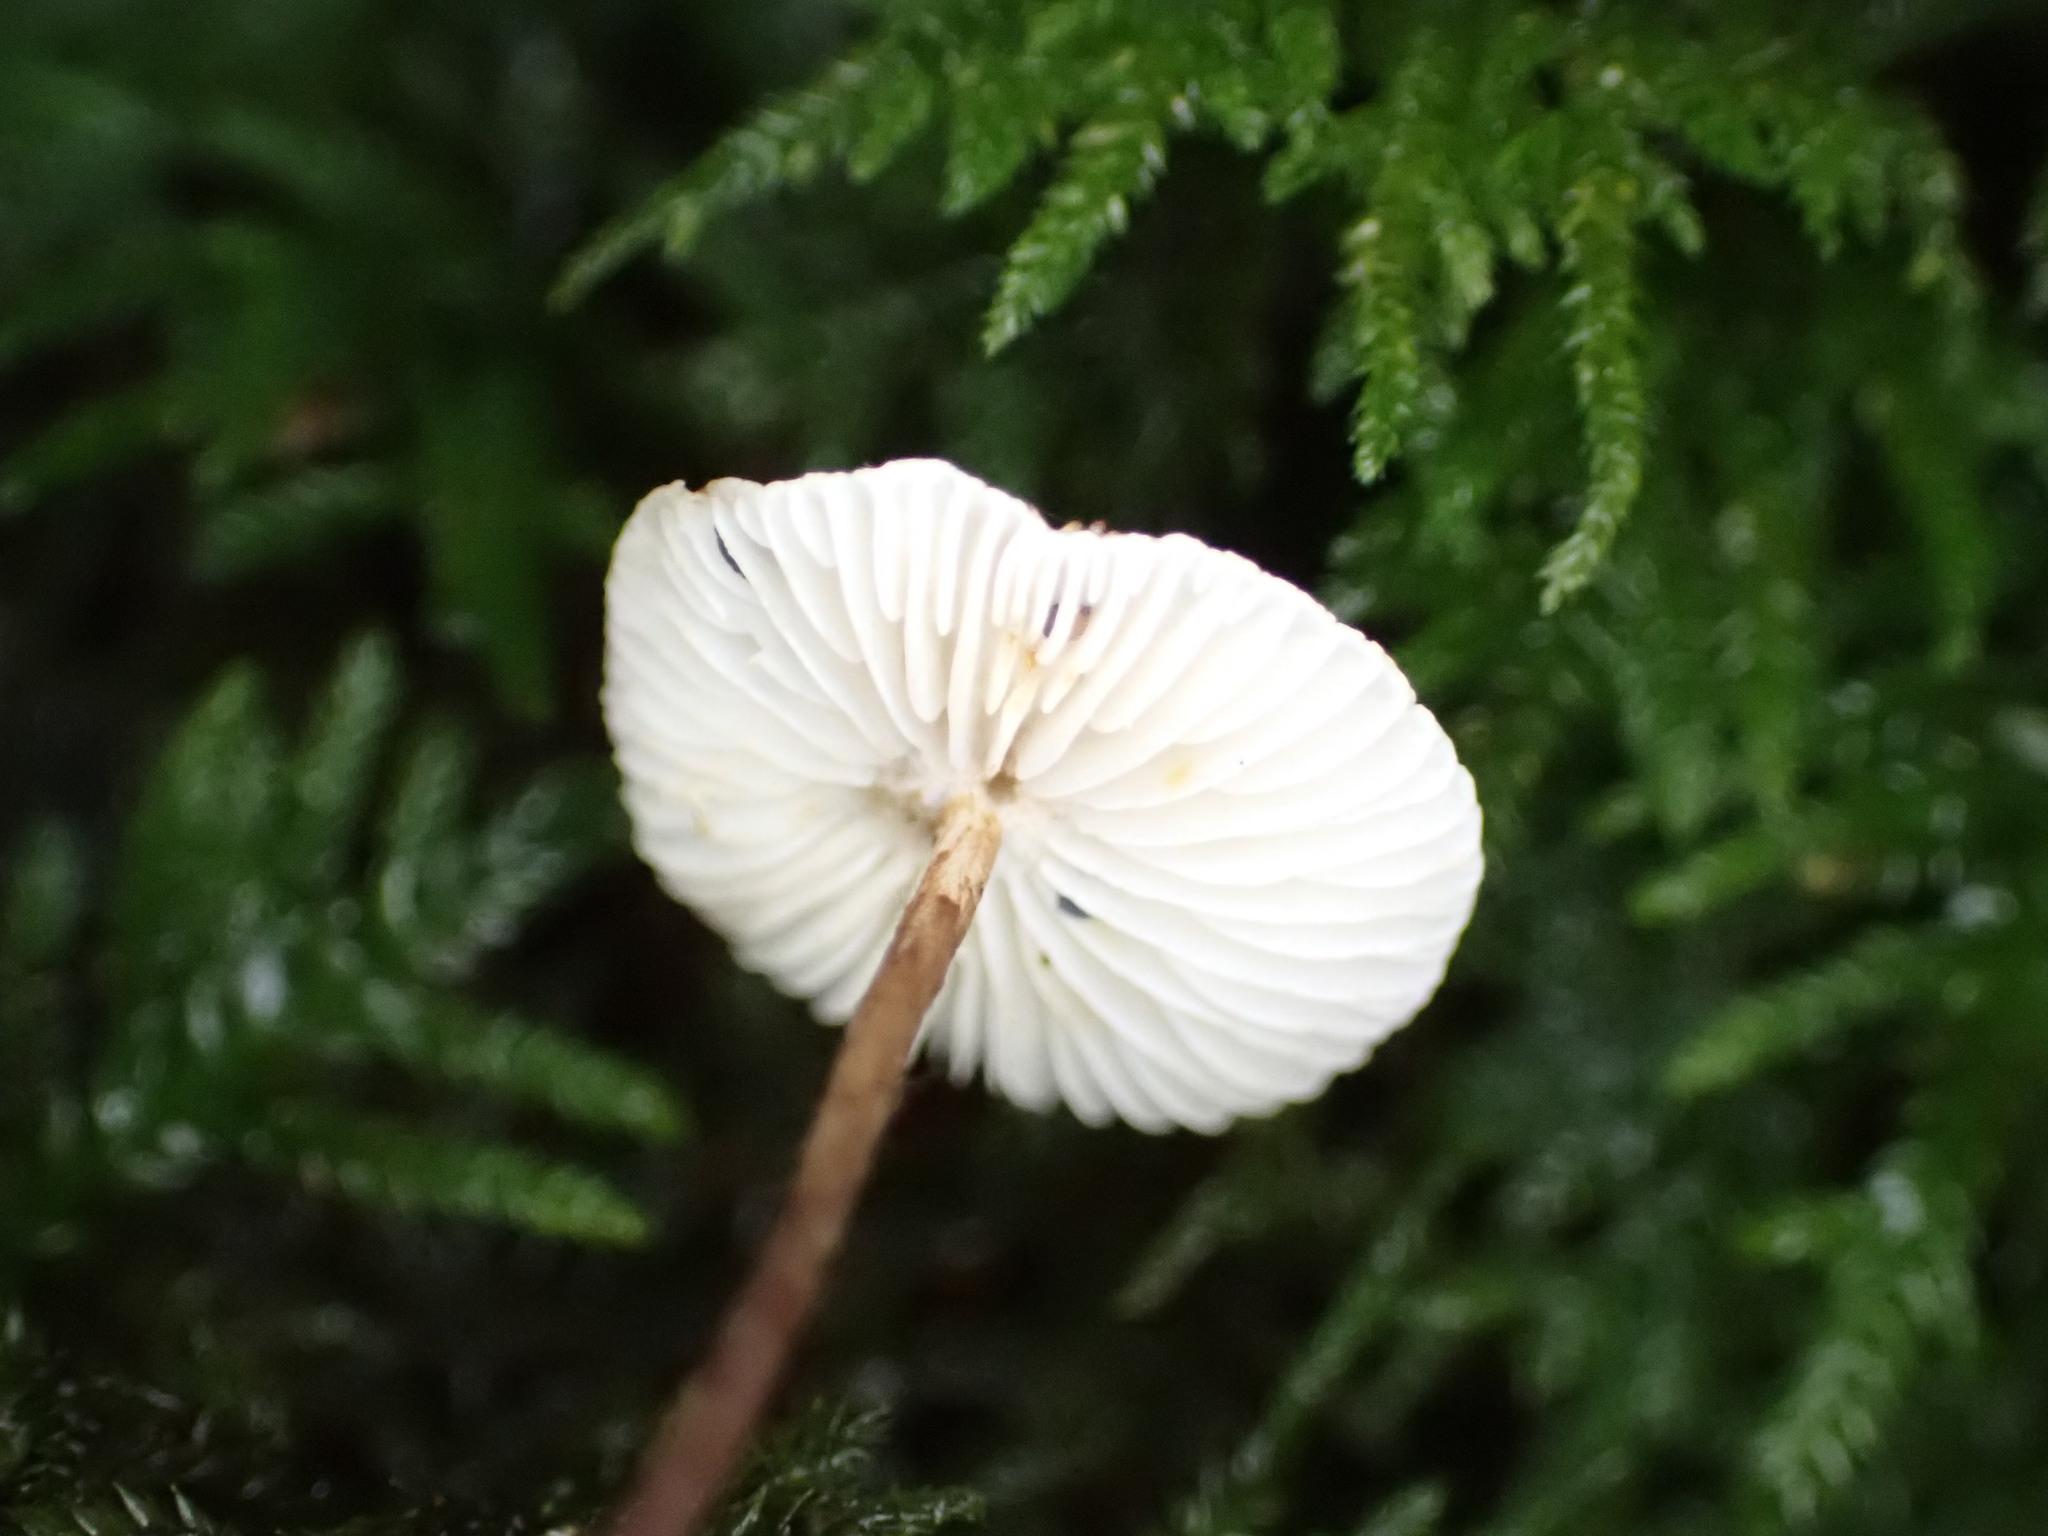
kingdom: Fungi
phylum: Basidiomycota
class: Agaricomycetes
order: Agaricales
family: Marasmiaceae
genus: Crinipellis
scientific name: Crinipellis procera
